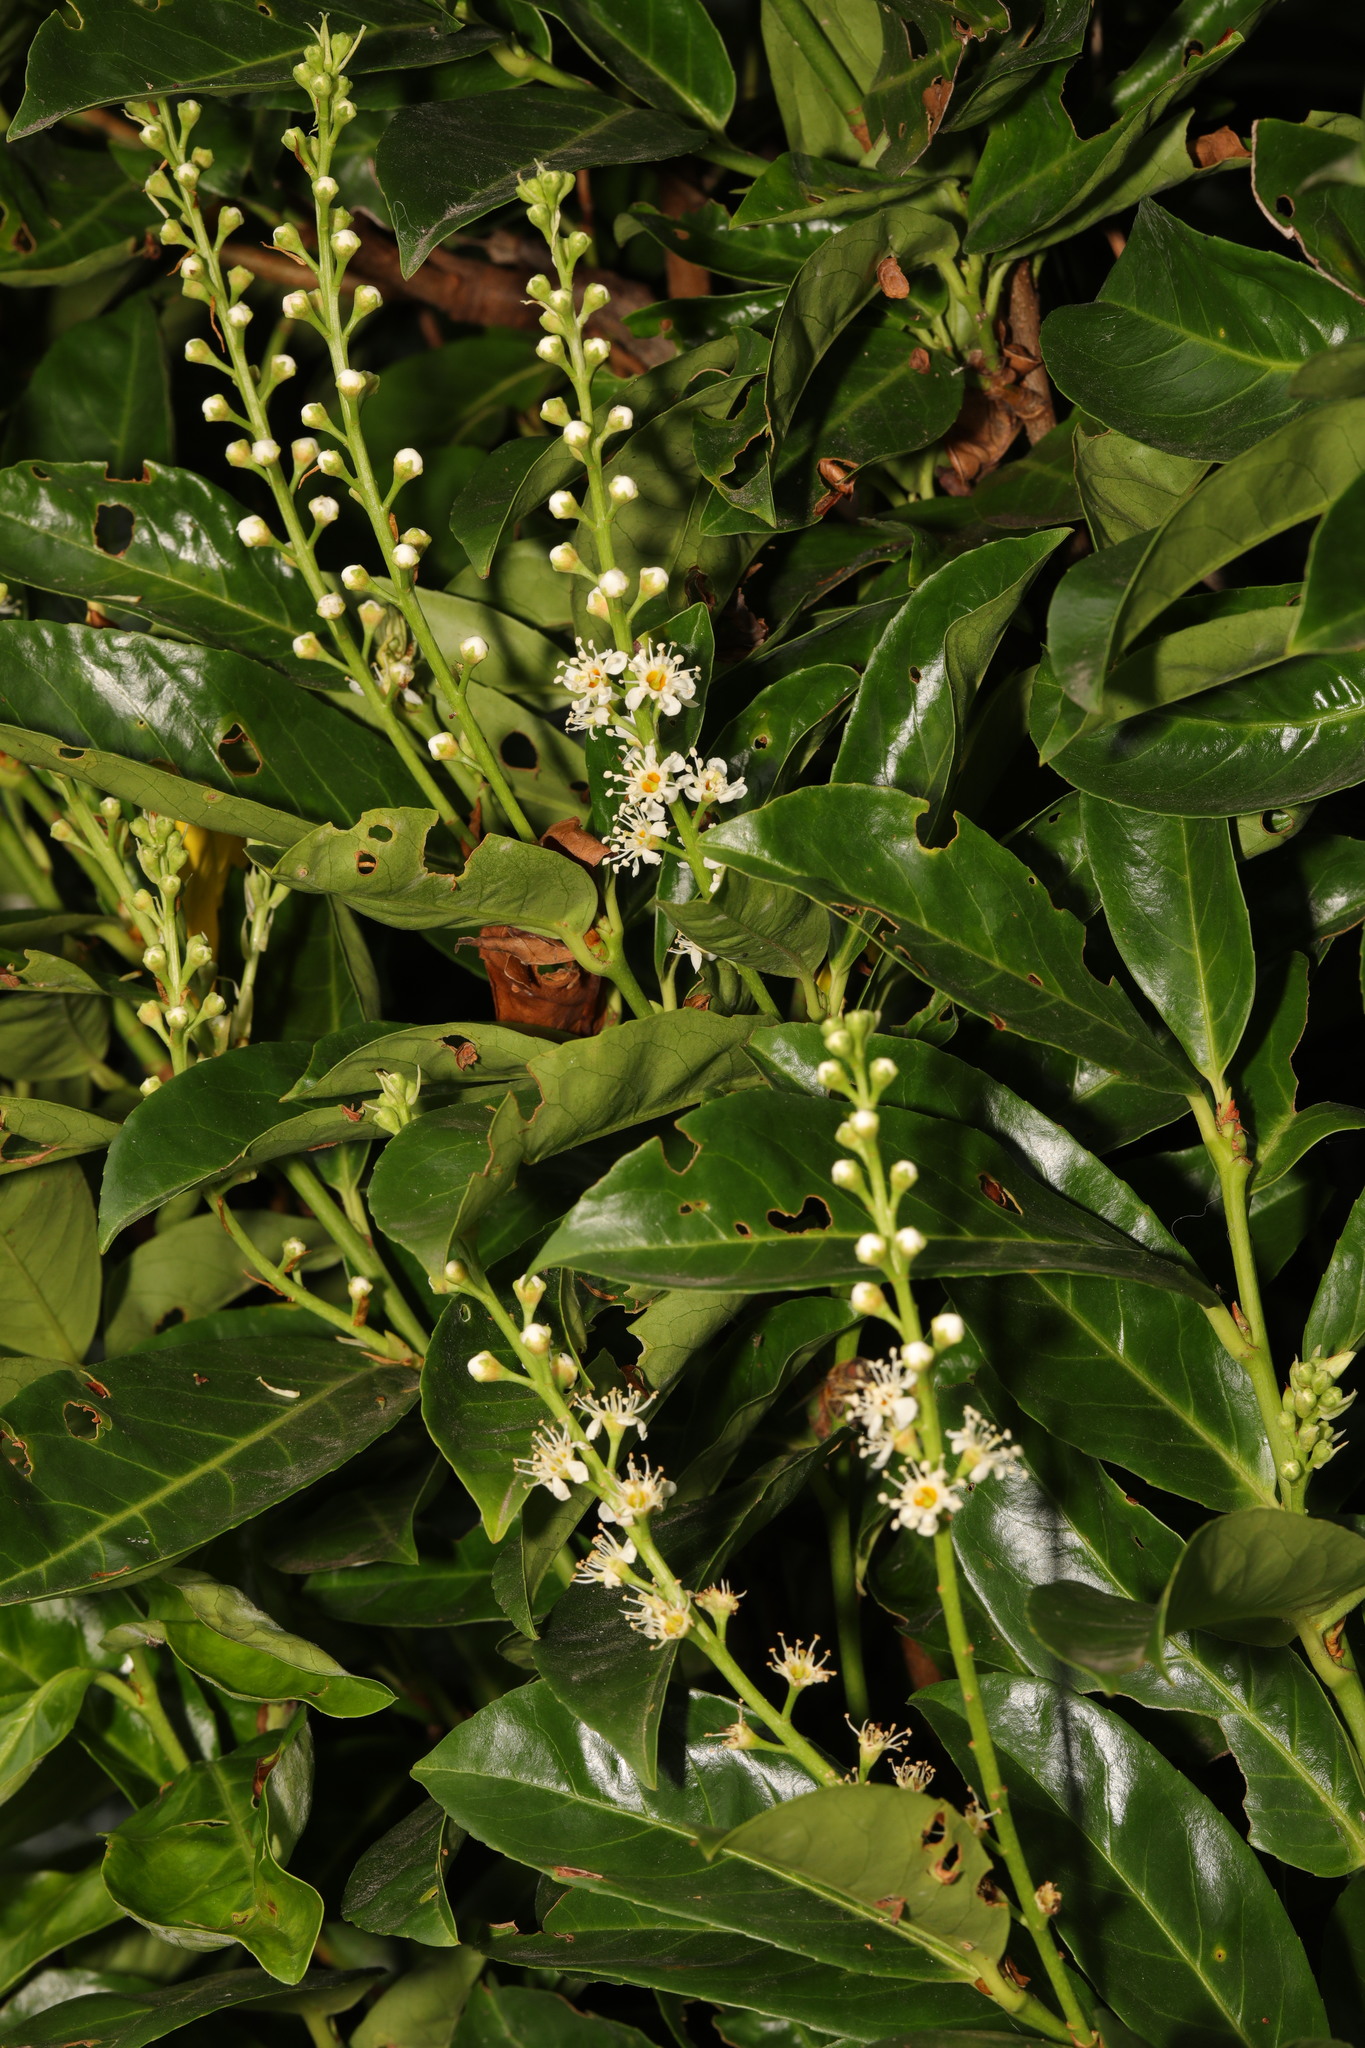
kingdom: Plantae
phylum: Tracheophyta
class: Magnoliopsida
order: Rosales
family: Rosaceae
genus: Prunus
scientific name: Prunus laurocerasus
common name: Cherry laurel
